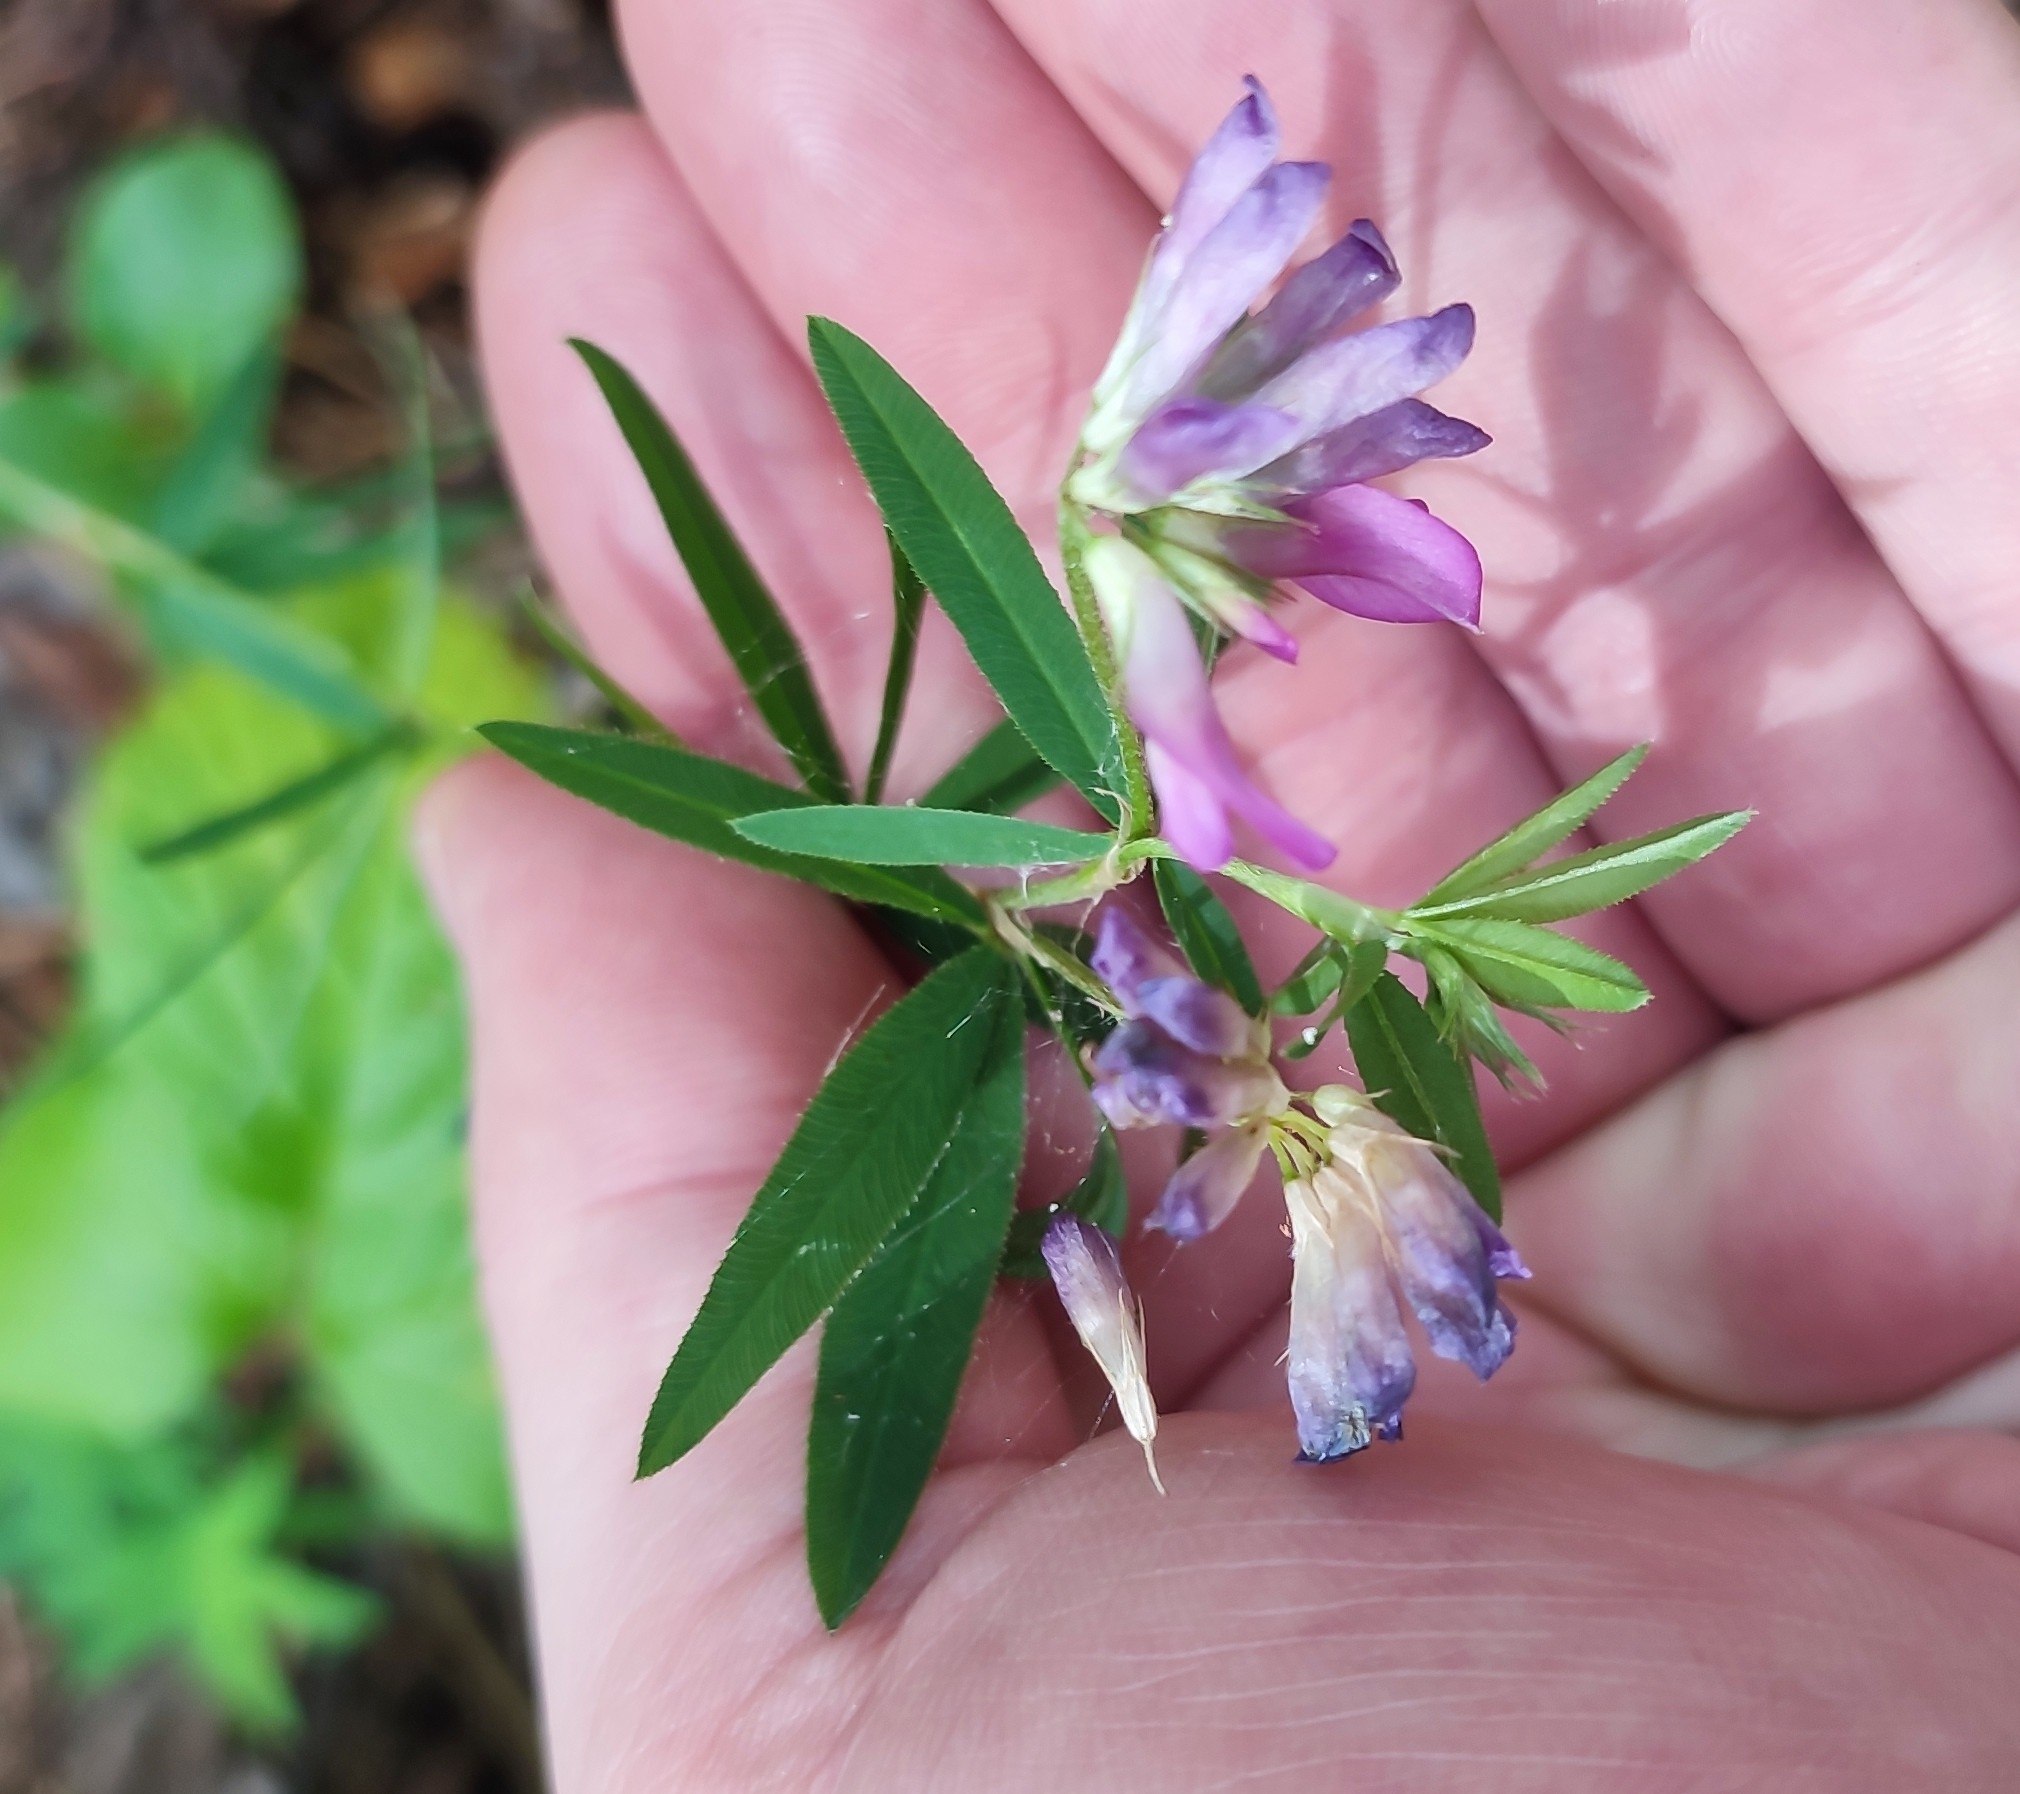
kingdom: Plantae
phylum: Tracheophyta
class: Magnoliopsida
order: Fabales
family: Fabaceae
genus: Trifolium
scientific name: Trifolium lupinaster
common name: Lupine clover
